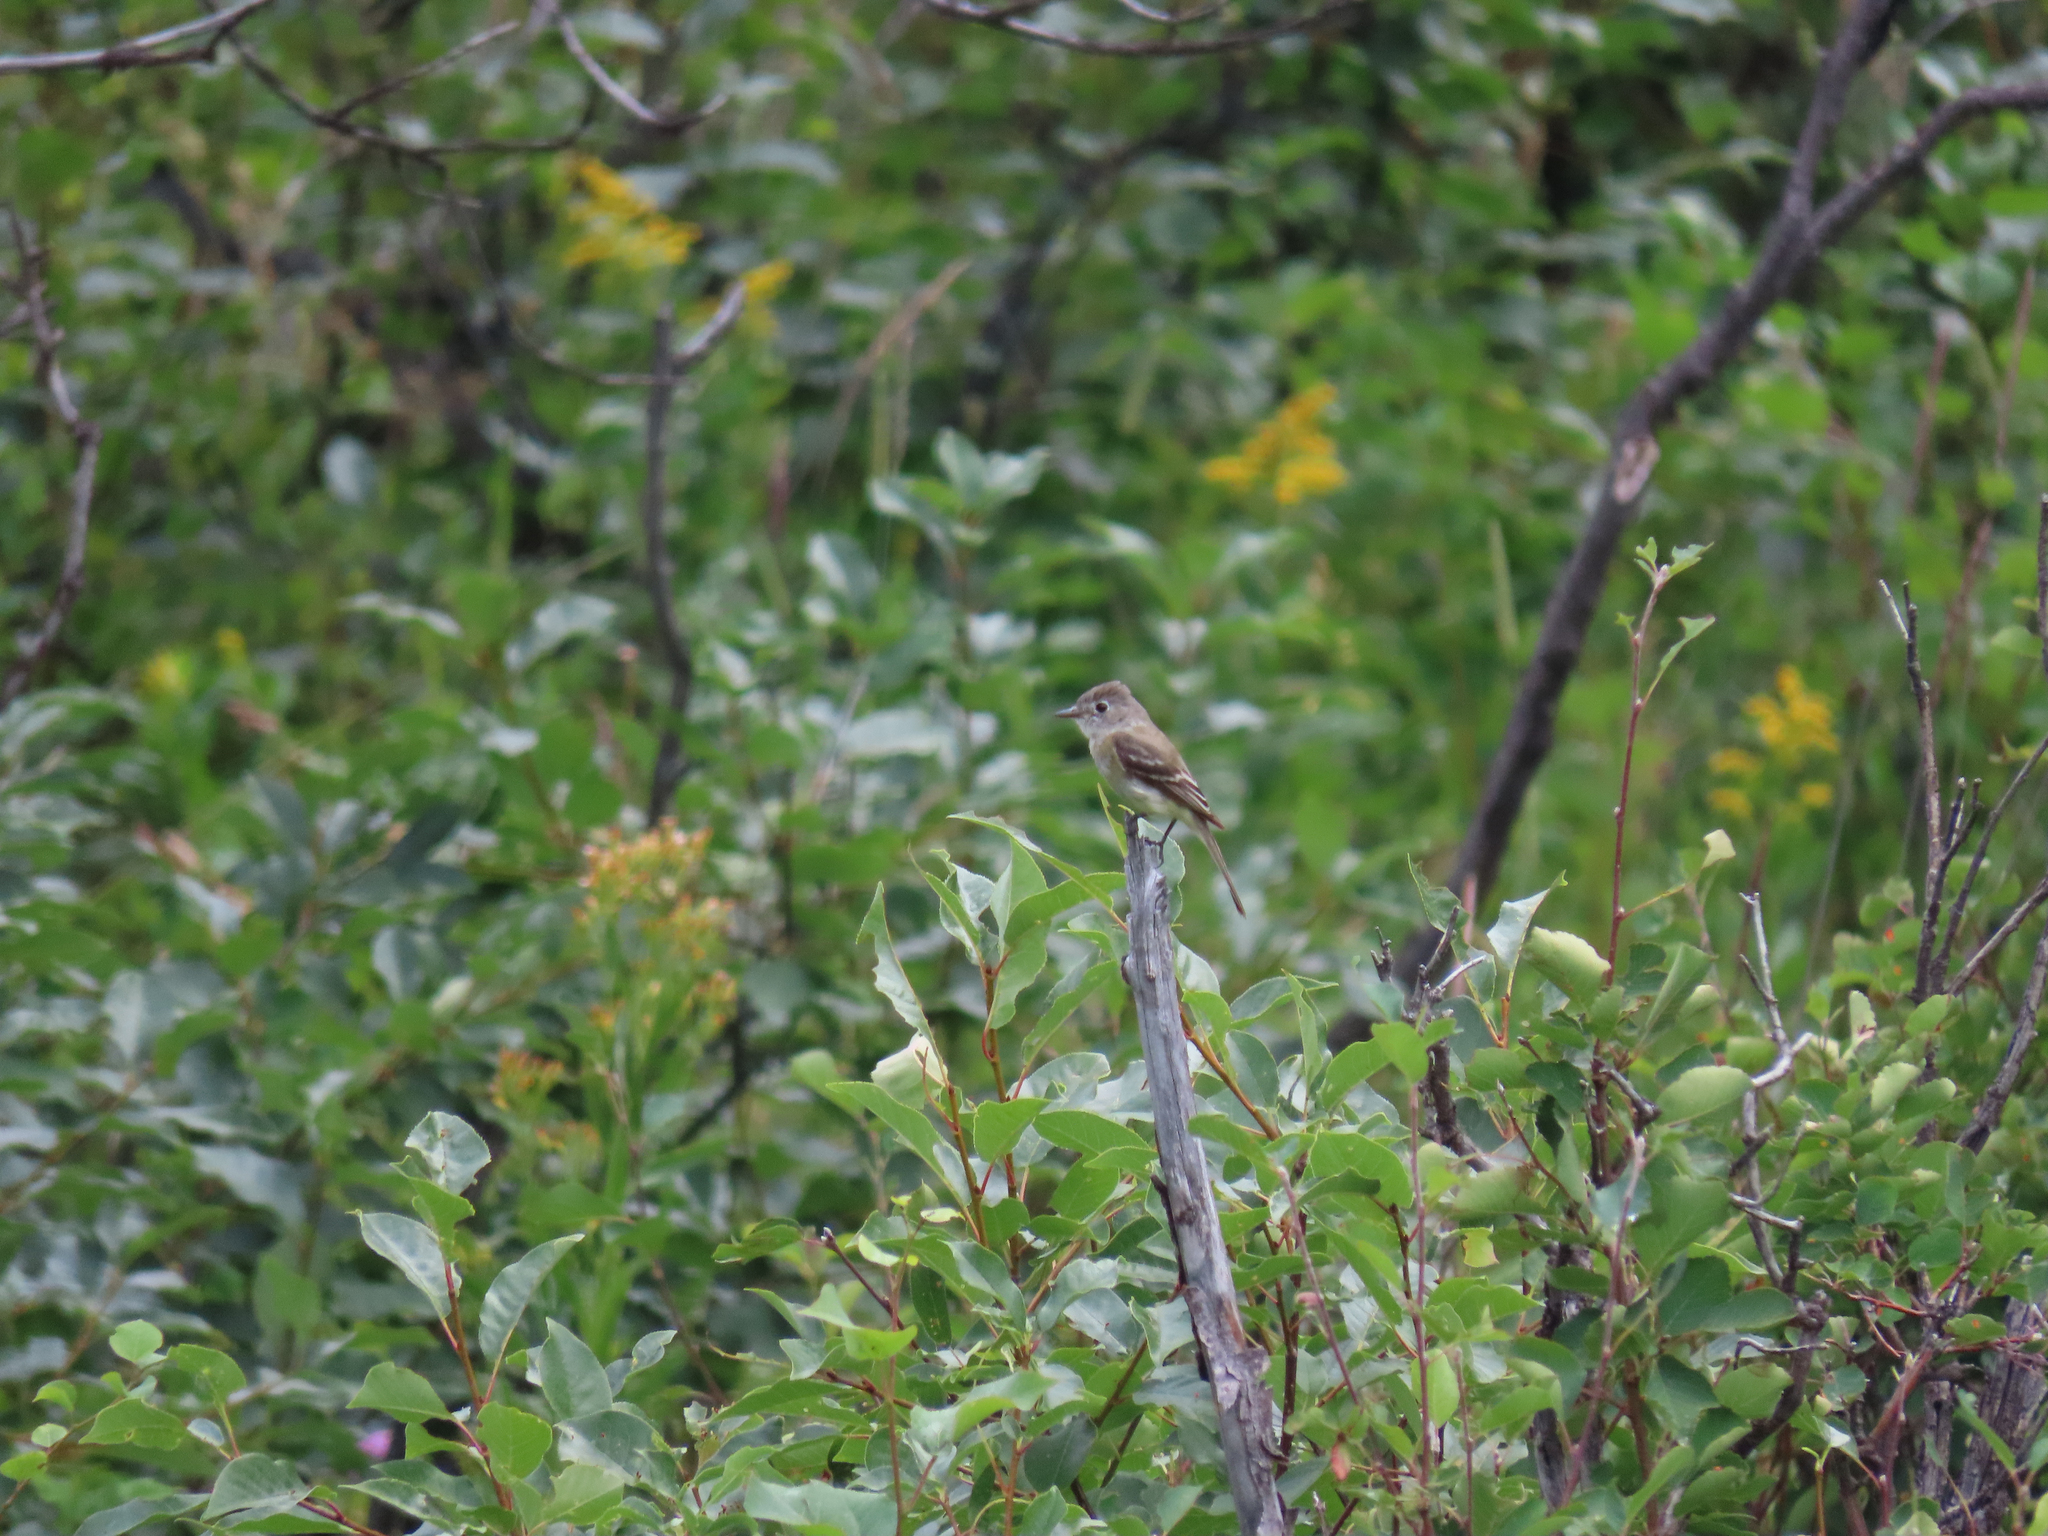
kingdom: Animalia
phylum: Chordata
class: Aves
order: Passeriformes
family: Tyrannidae
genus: Empidonax
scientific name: Empidonax oberholseri
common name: Dusky flycatcher
